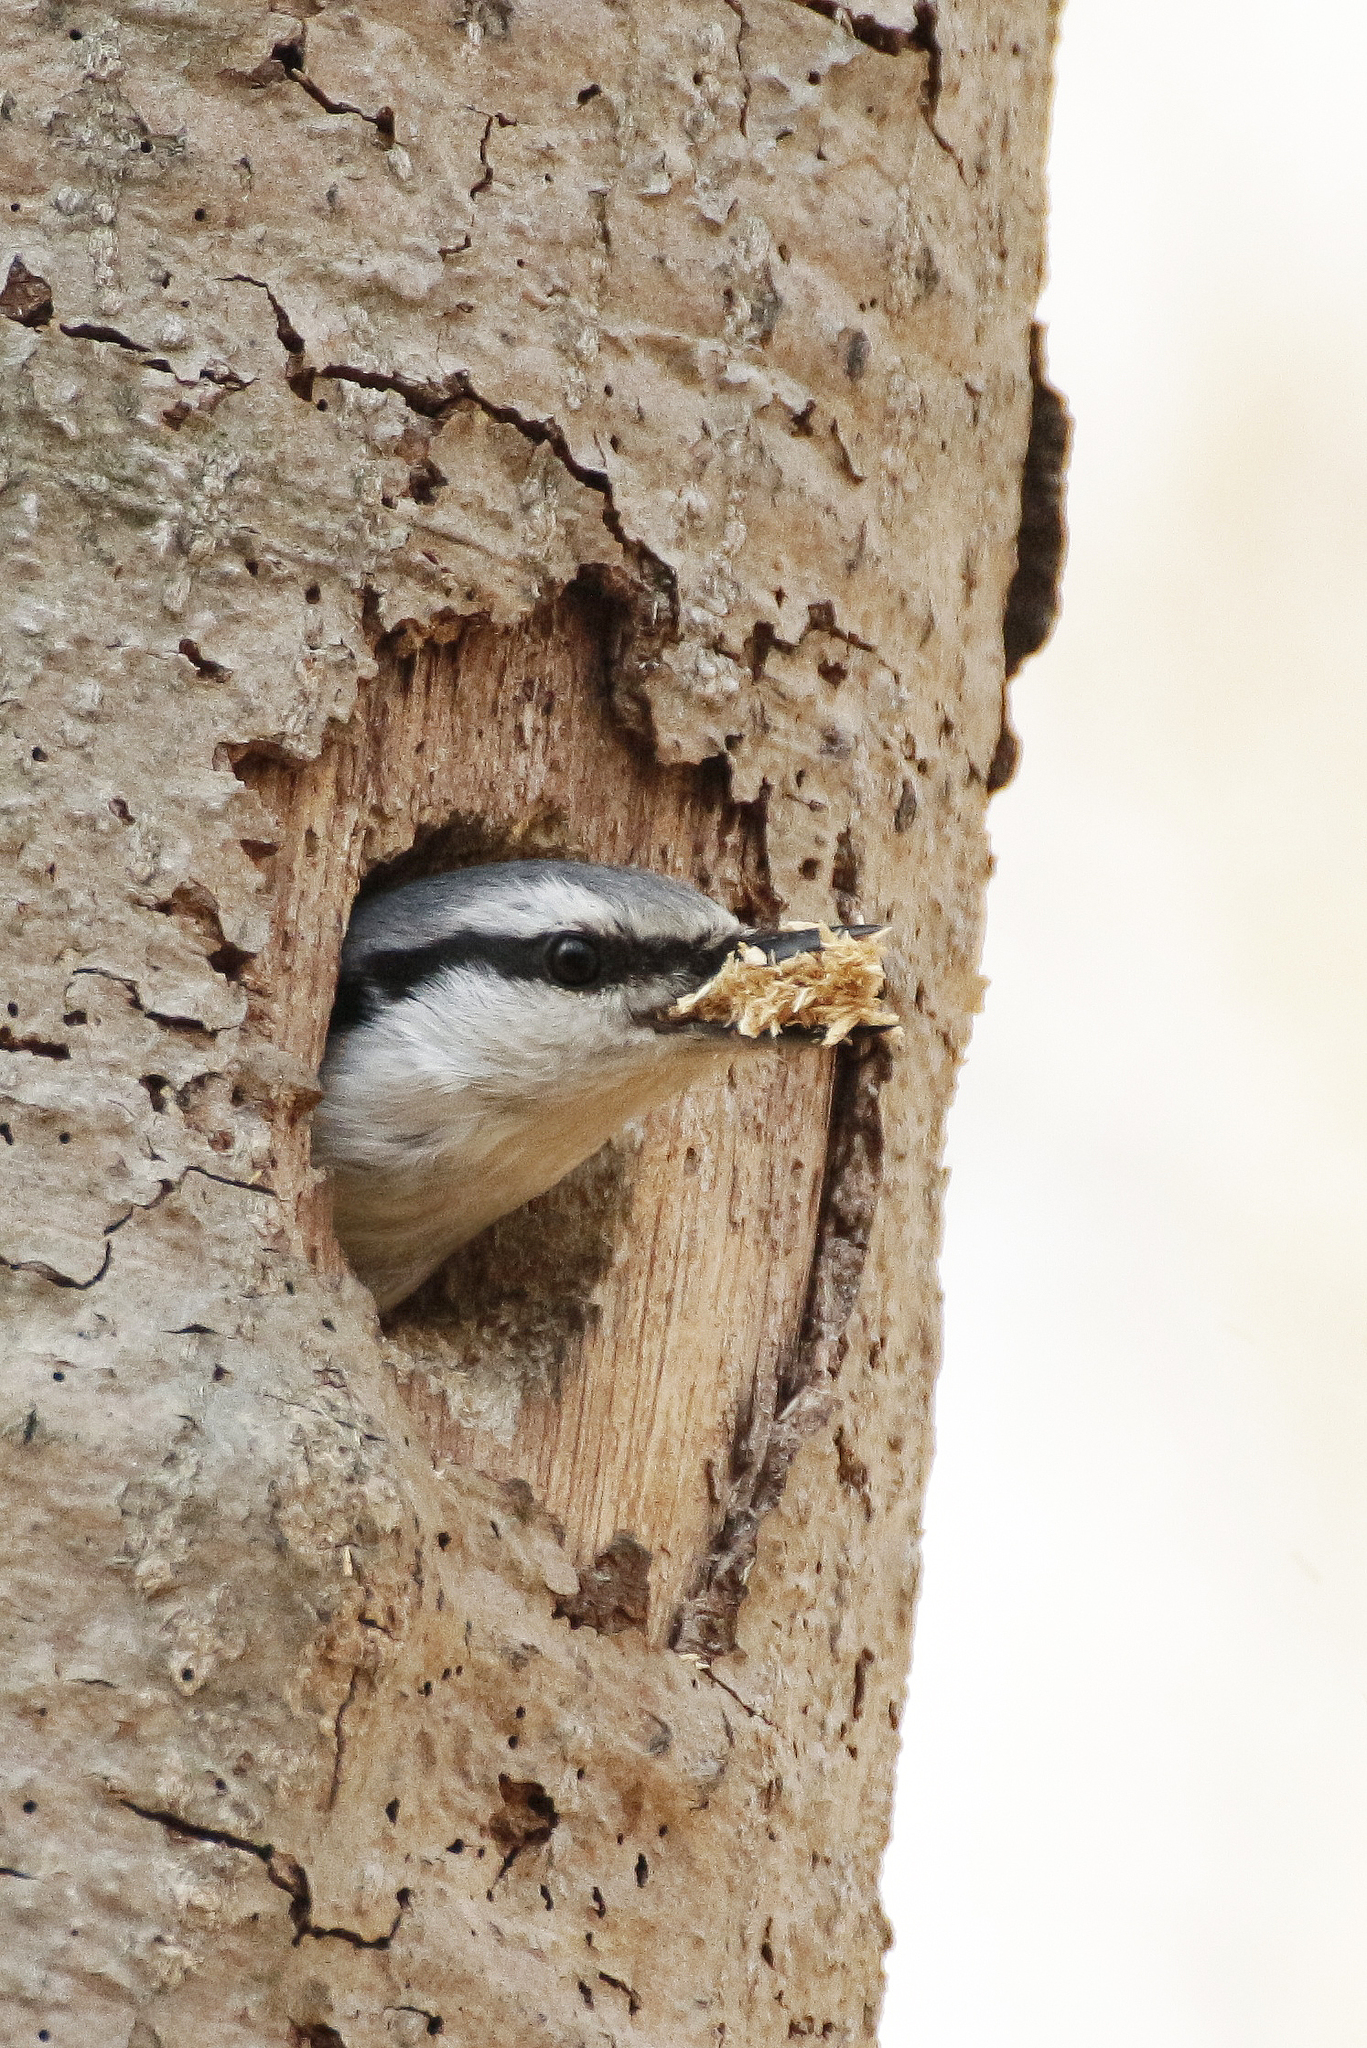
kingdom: Animalia
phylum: Chordata
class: Aves
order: Passeriformes
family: Sittidae
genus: Sitta
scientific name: Sitta europaea
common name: Eurasian nuthatch
